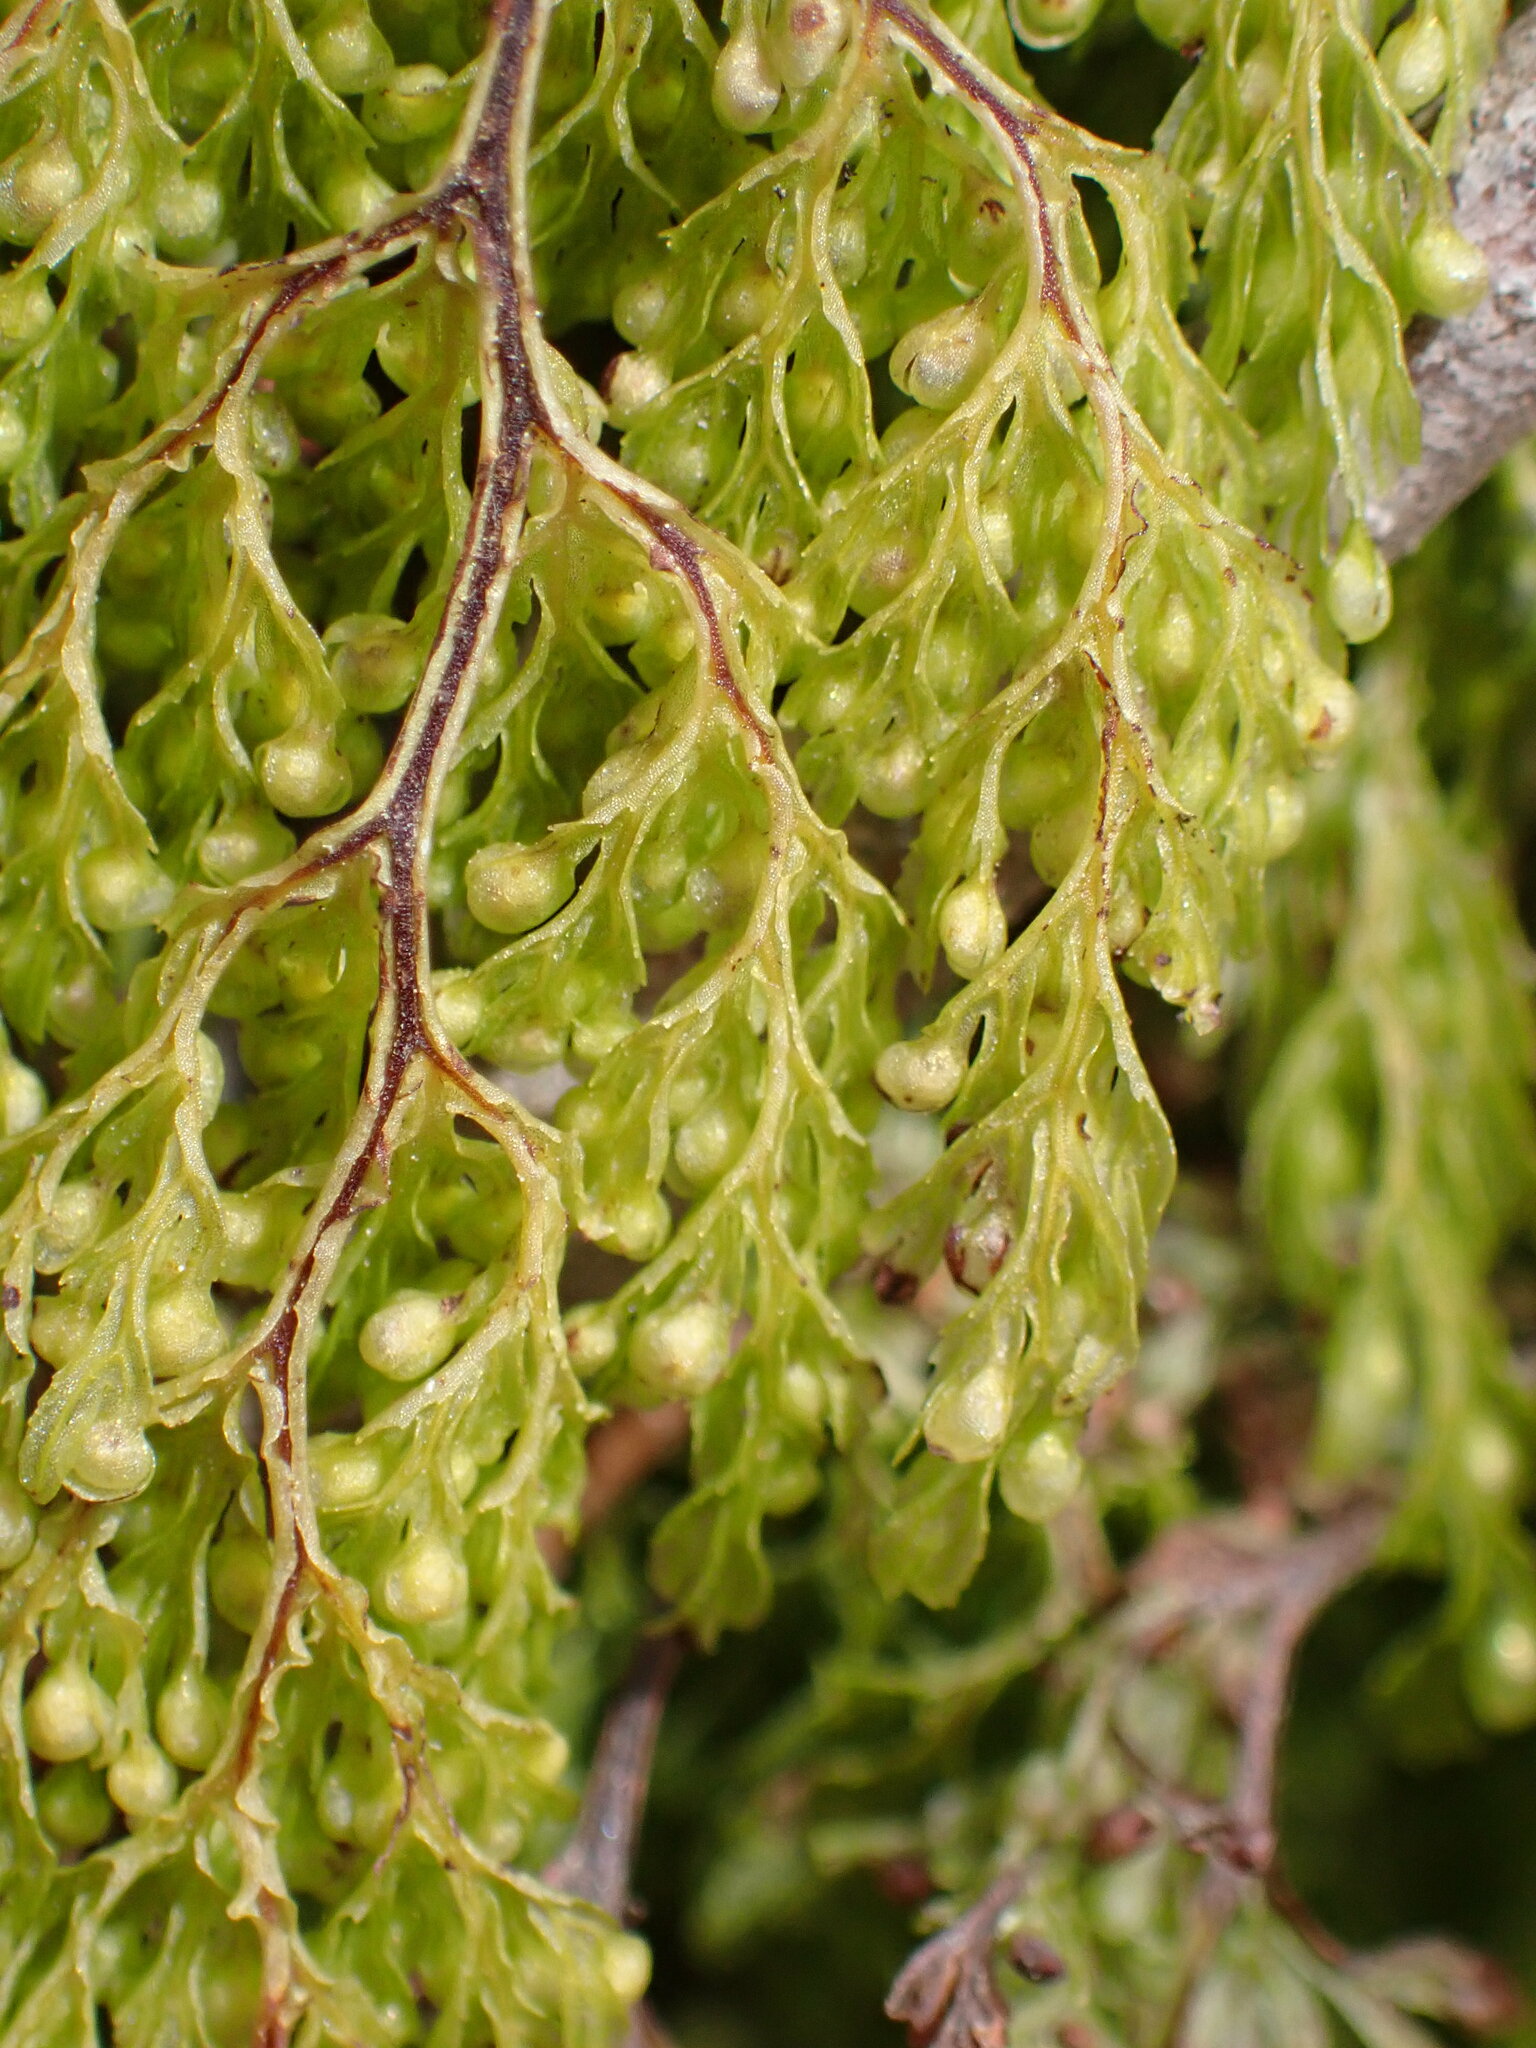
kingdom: Plantae
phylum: Tracheophyta
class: Polypodiopsida
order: Hymenophyllales
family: Hymenophyllaceae
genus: Hymenophyllum
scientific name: Hymenophyllum bivalve
